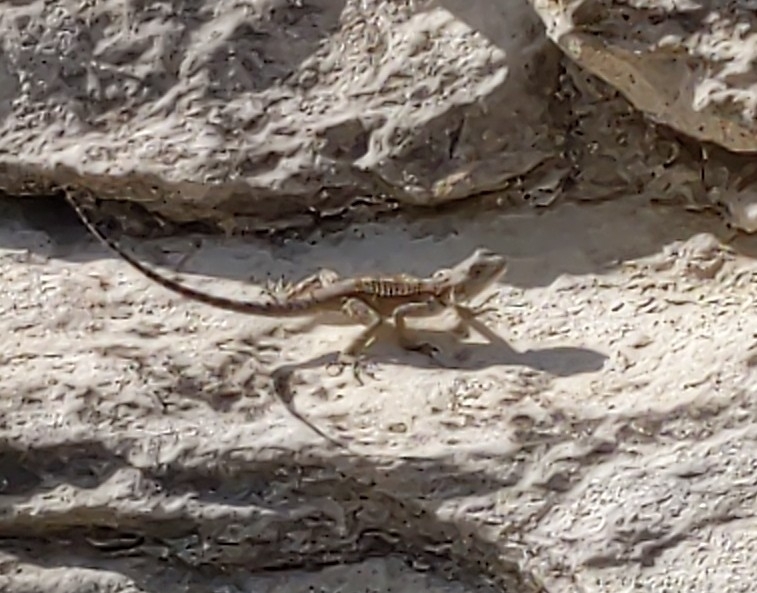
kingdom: Animalia
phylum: Chordata
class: Squamata
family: Agamidae
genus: Laudakia
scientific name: Laudakia
